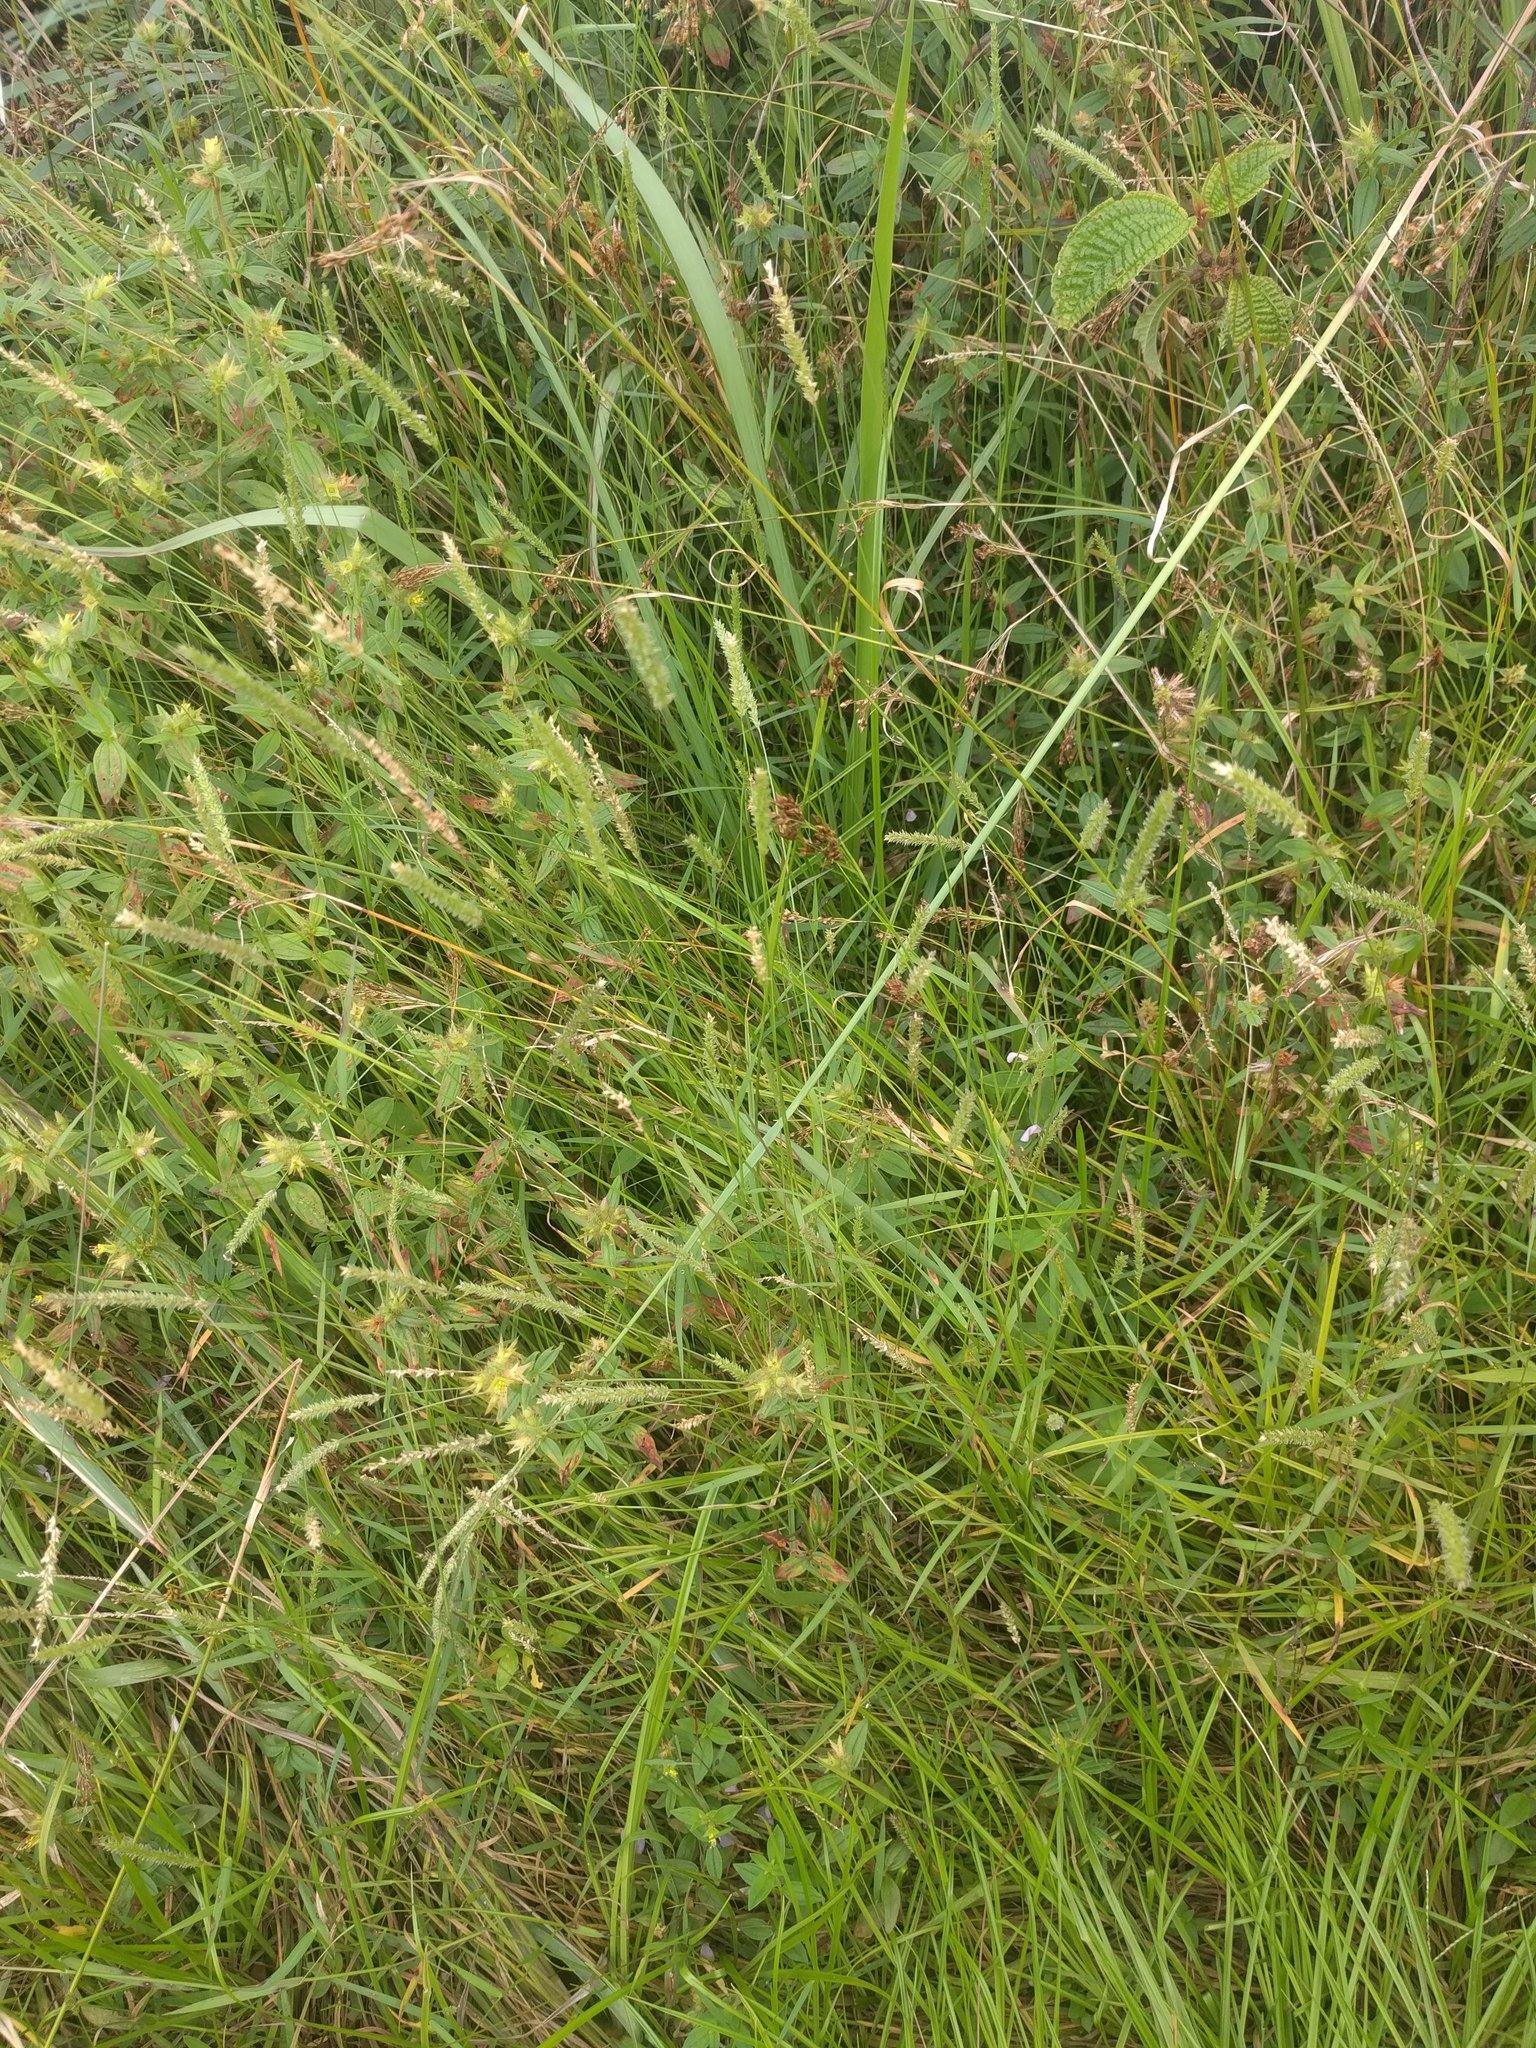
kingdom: Plantae
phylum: Tracheophyta
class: Liliopsida
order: Poales
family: Poaceae
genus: Sacciolepis
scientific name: Sacciolepis indica
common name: Glenwoodgrass
